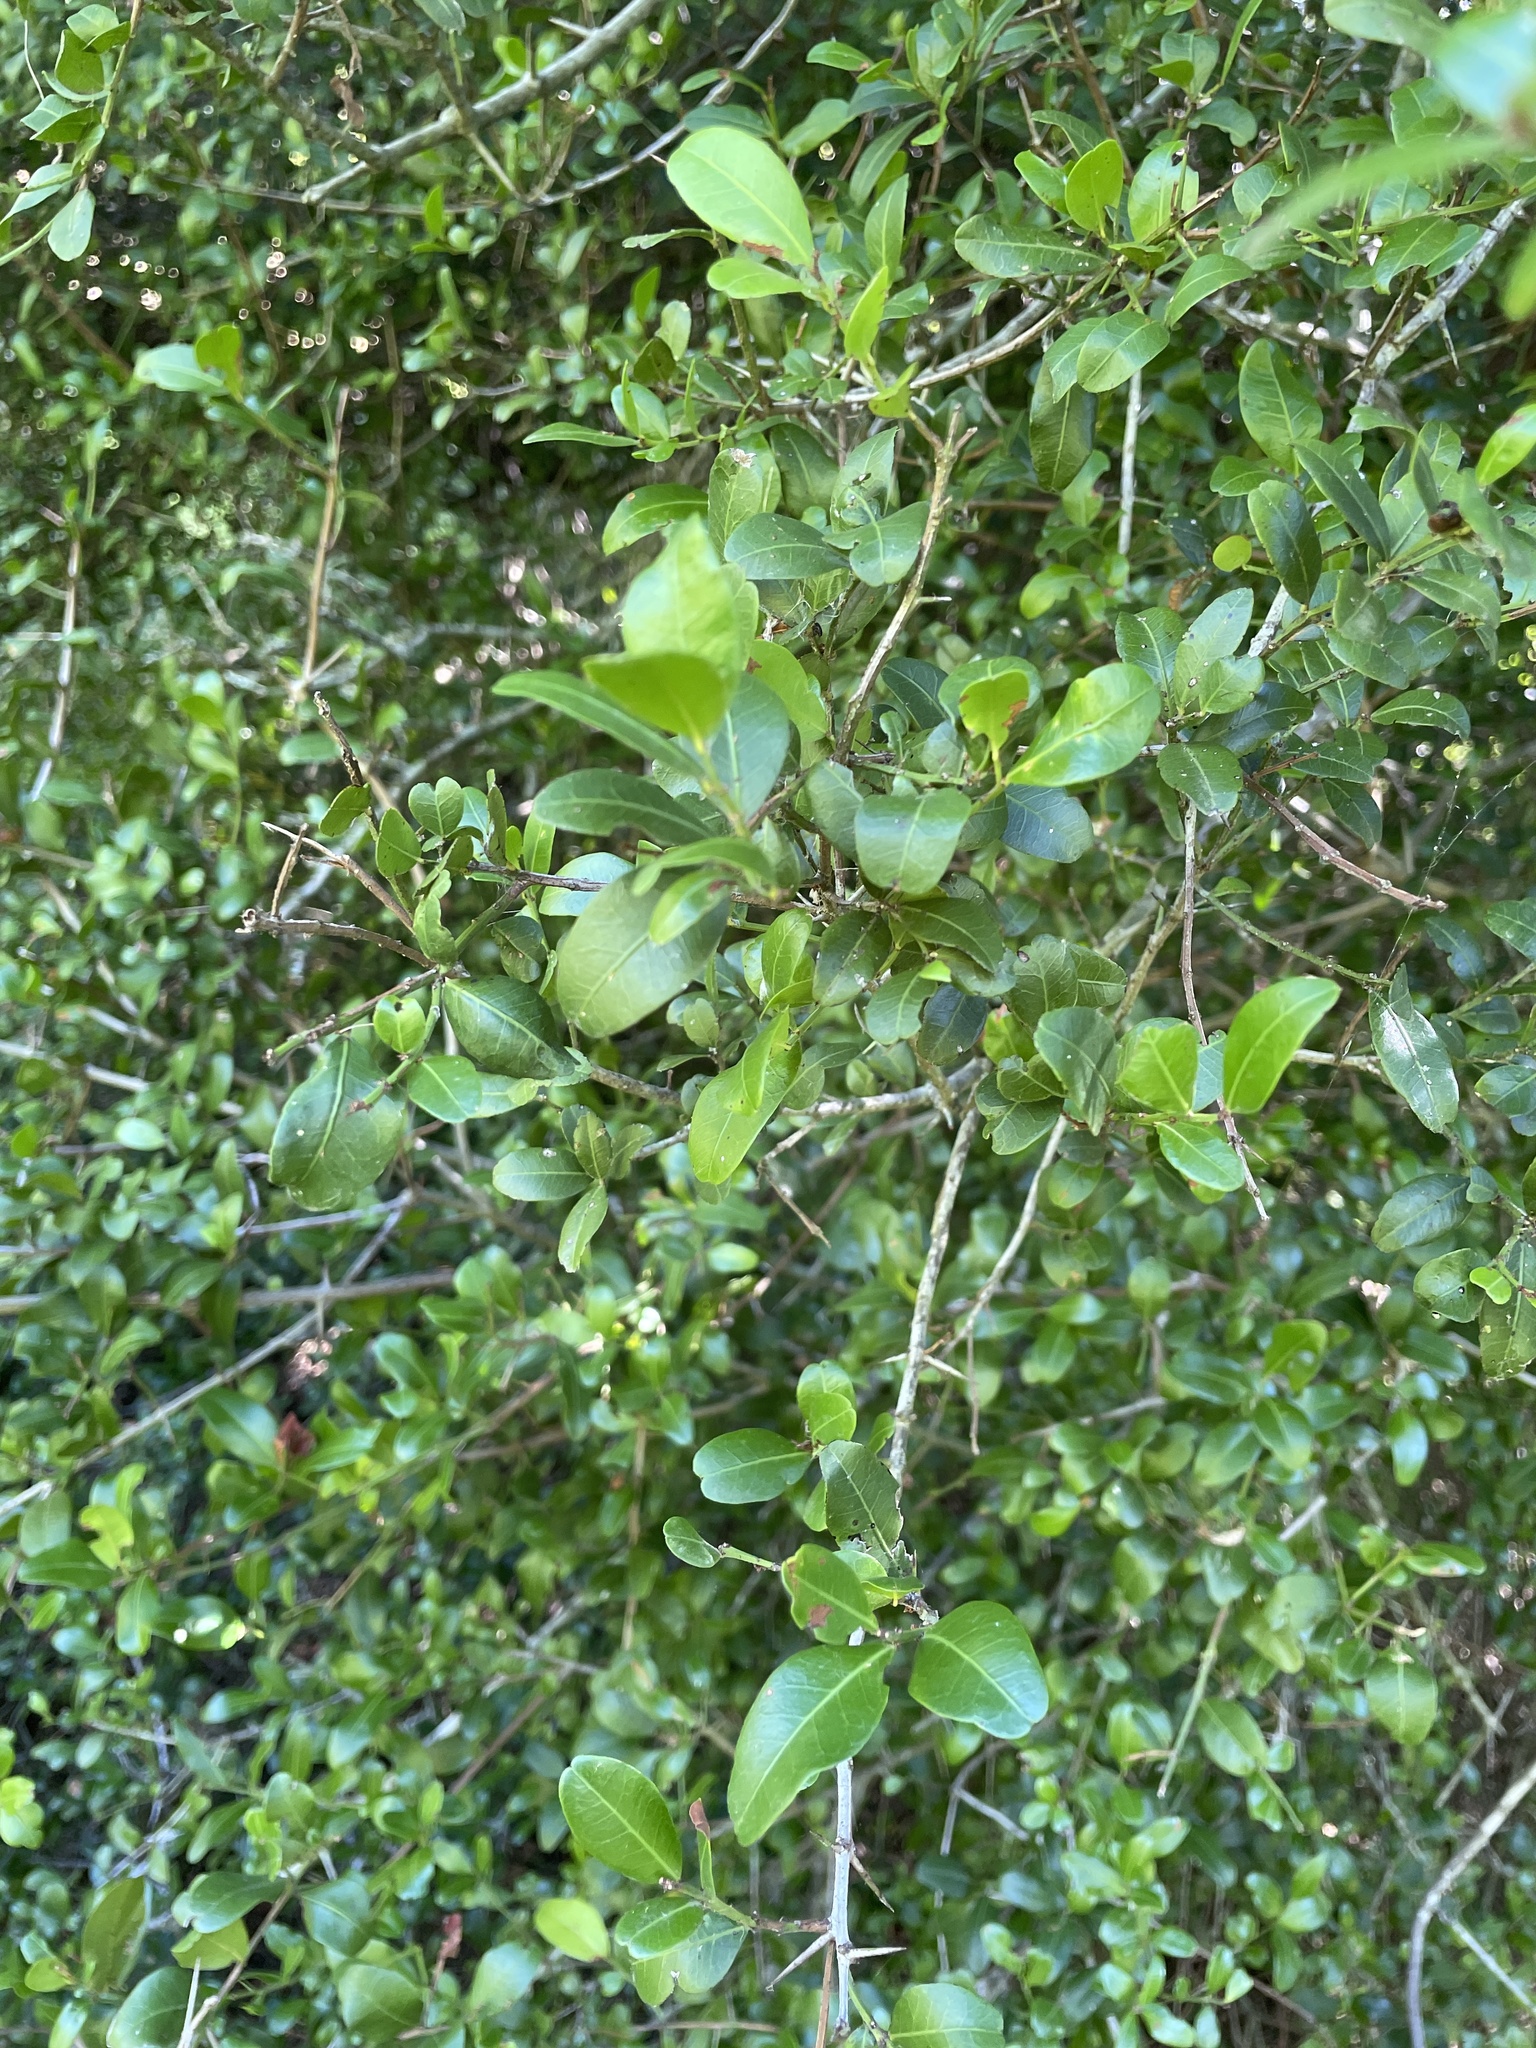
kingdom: Plantae
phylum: Tracheophyta
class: Magnoliopsida
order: Rosales
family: Rhamnaceae
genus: Scutia
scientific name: Scutia buxifolia
